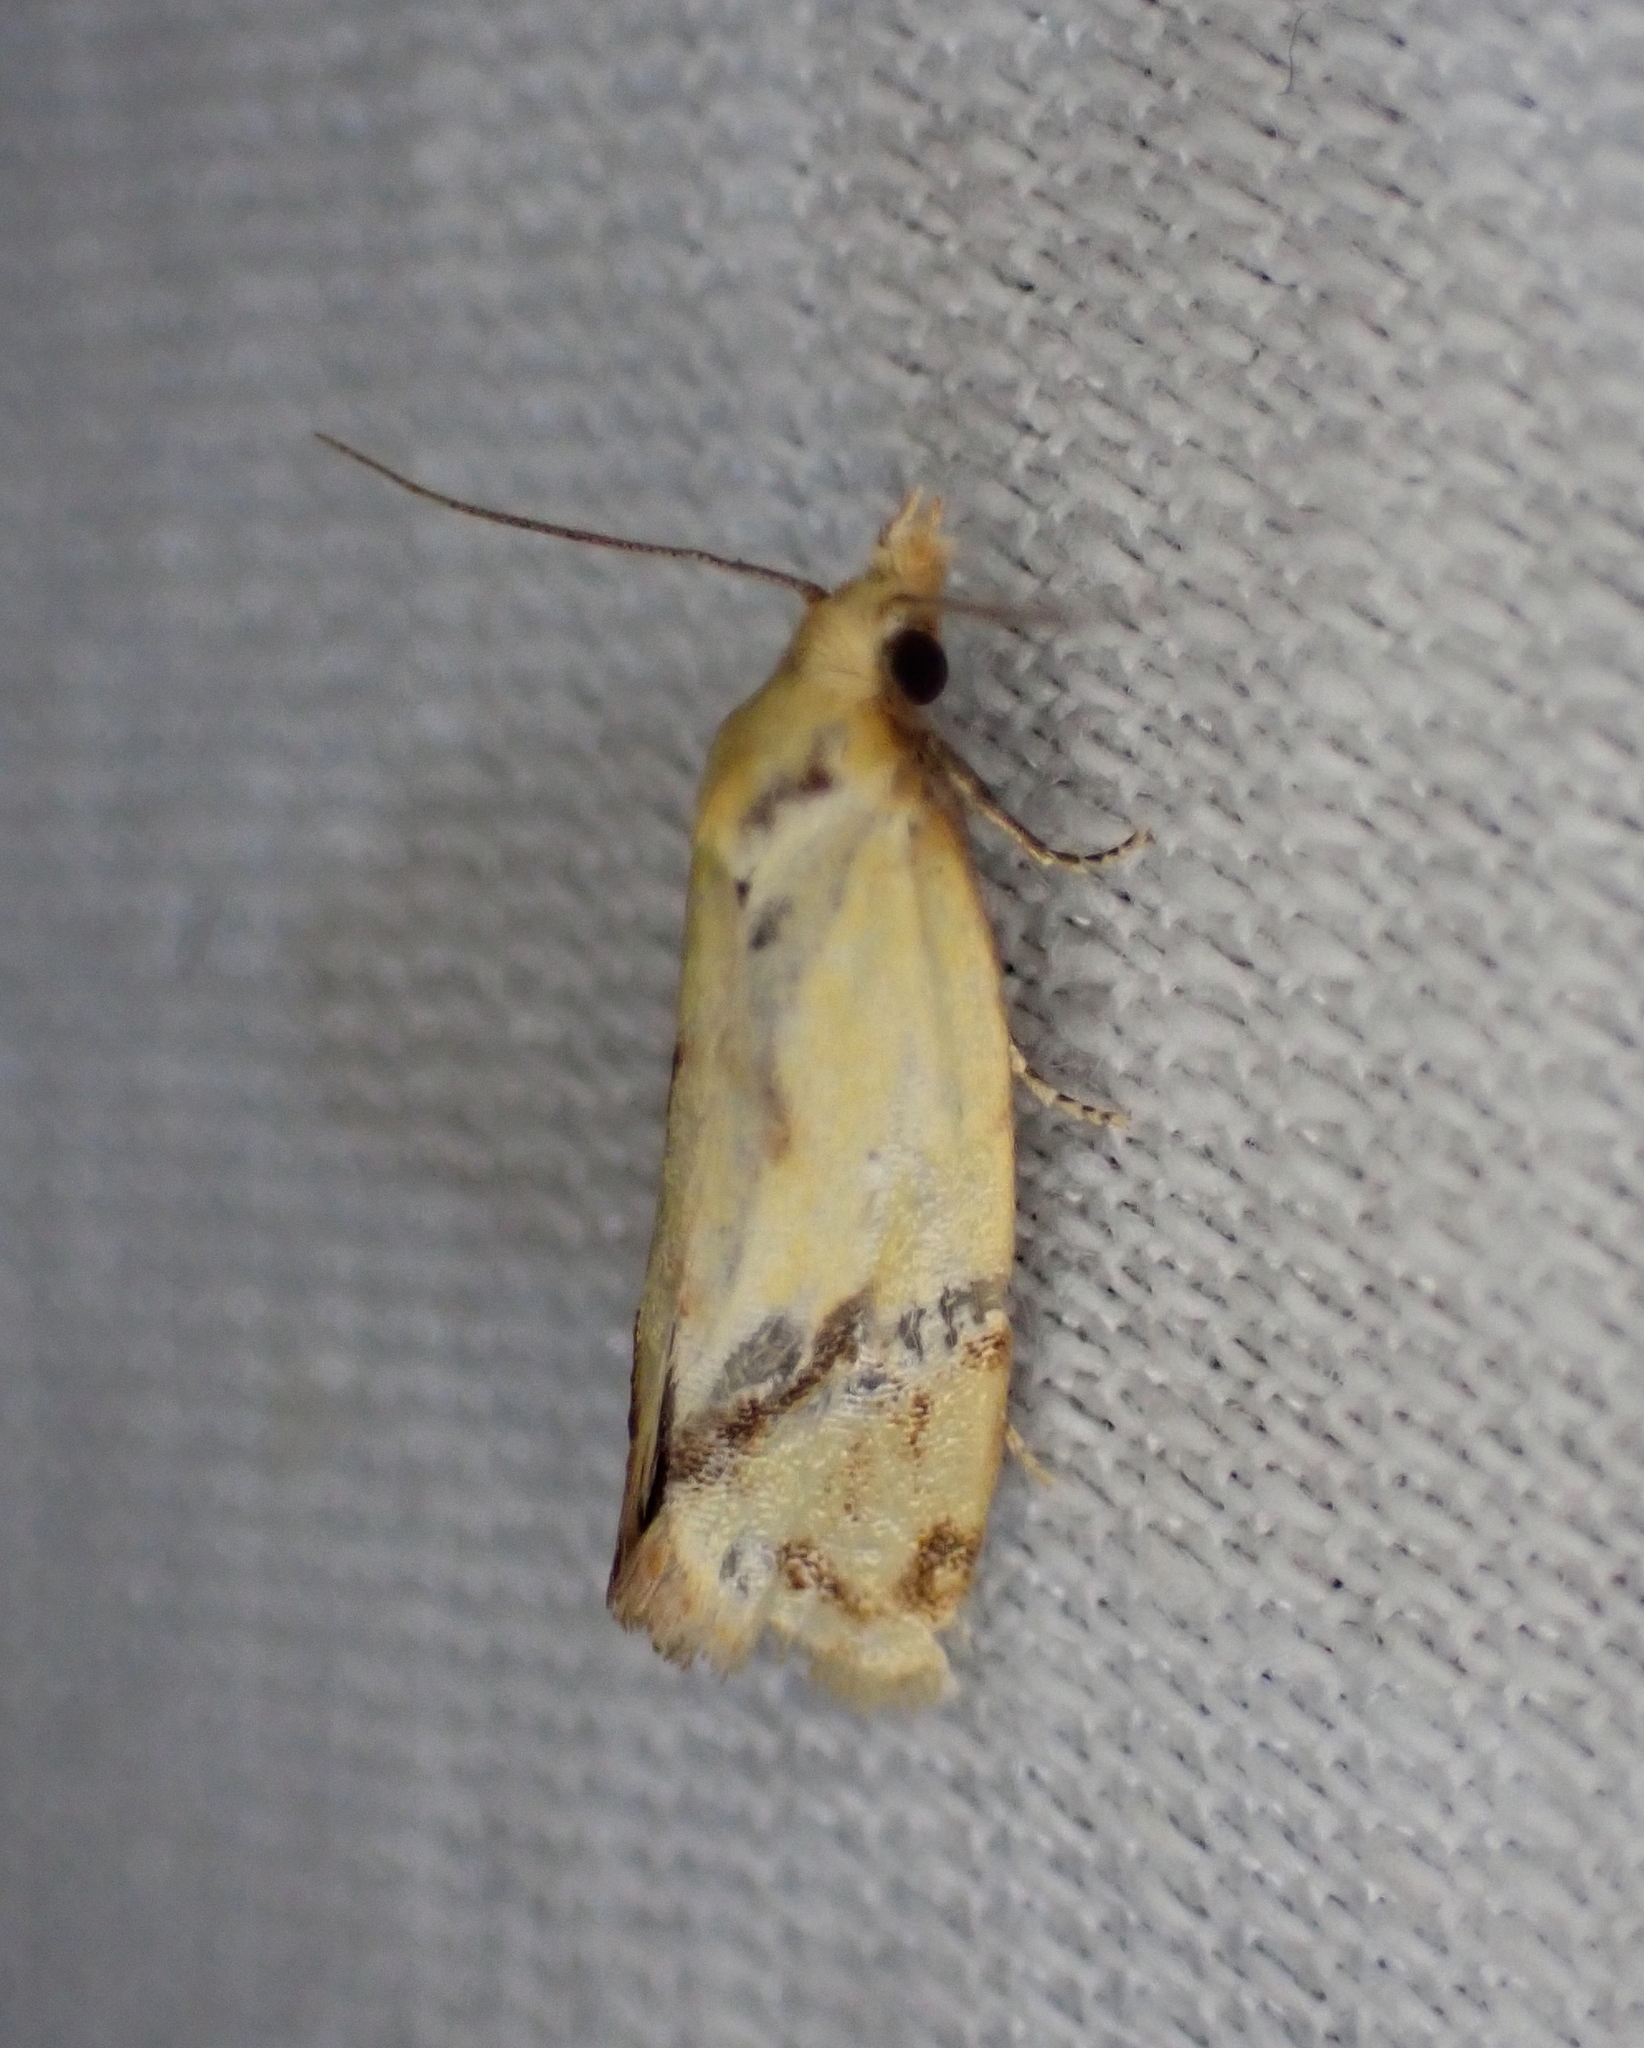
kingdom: Animalia
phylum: Arthropoda
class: Insecta
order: Lepidoptera
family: Tortricidae
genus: Agapeta
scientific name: Agapeta hamana
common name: Common yellow conch
